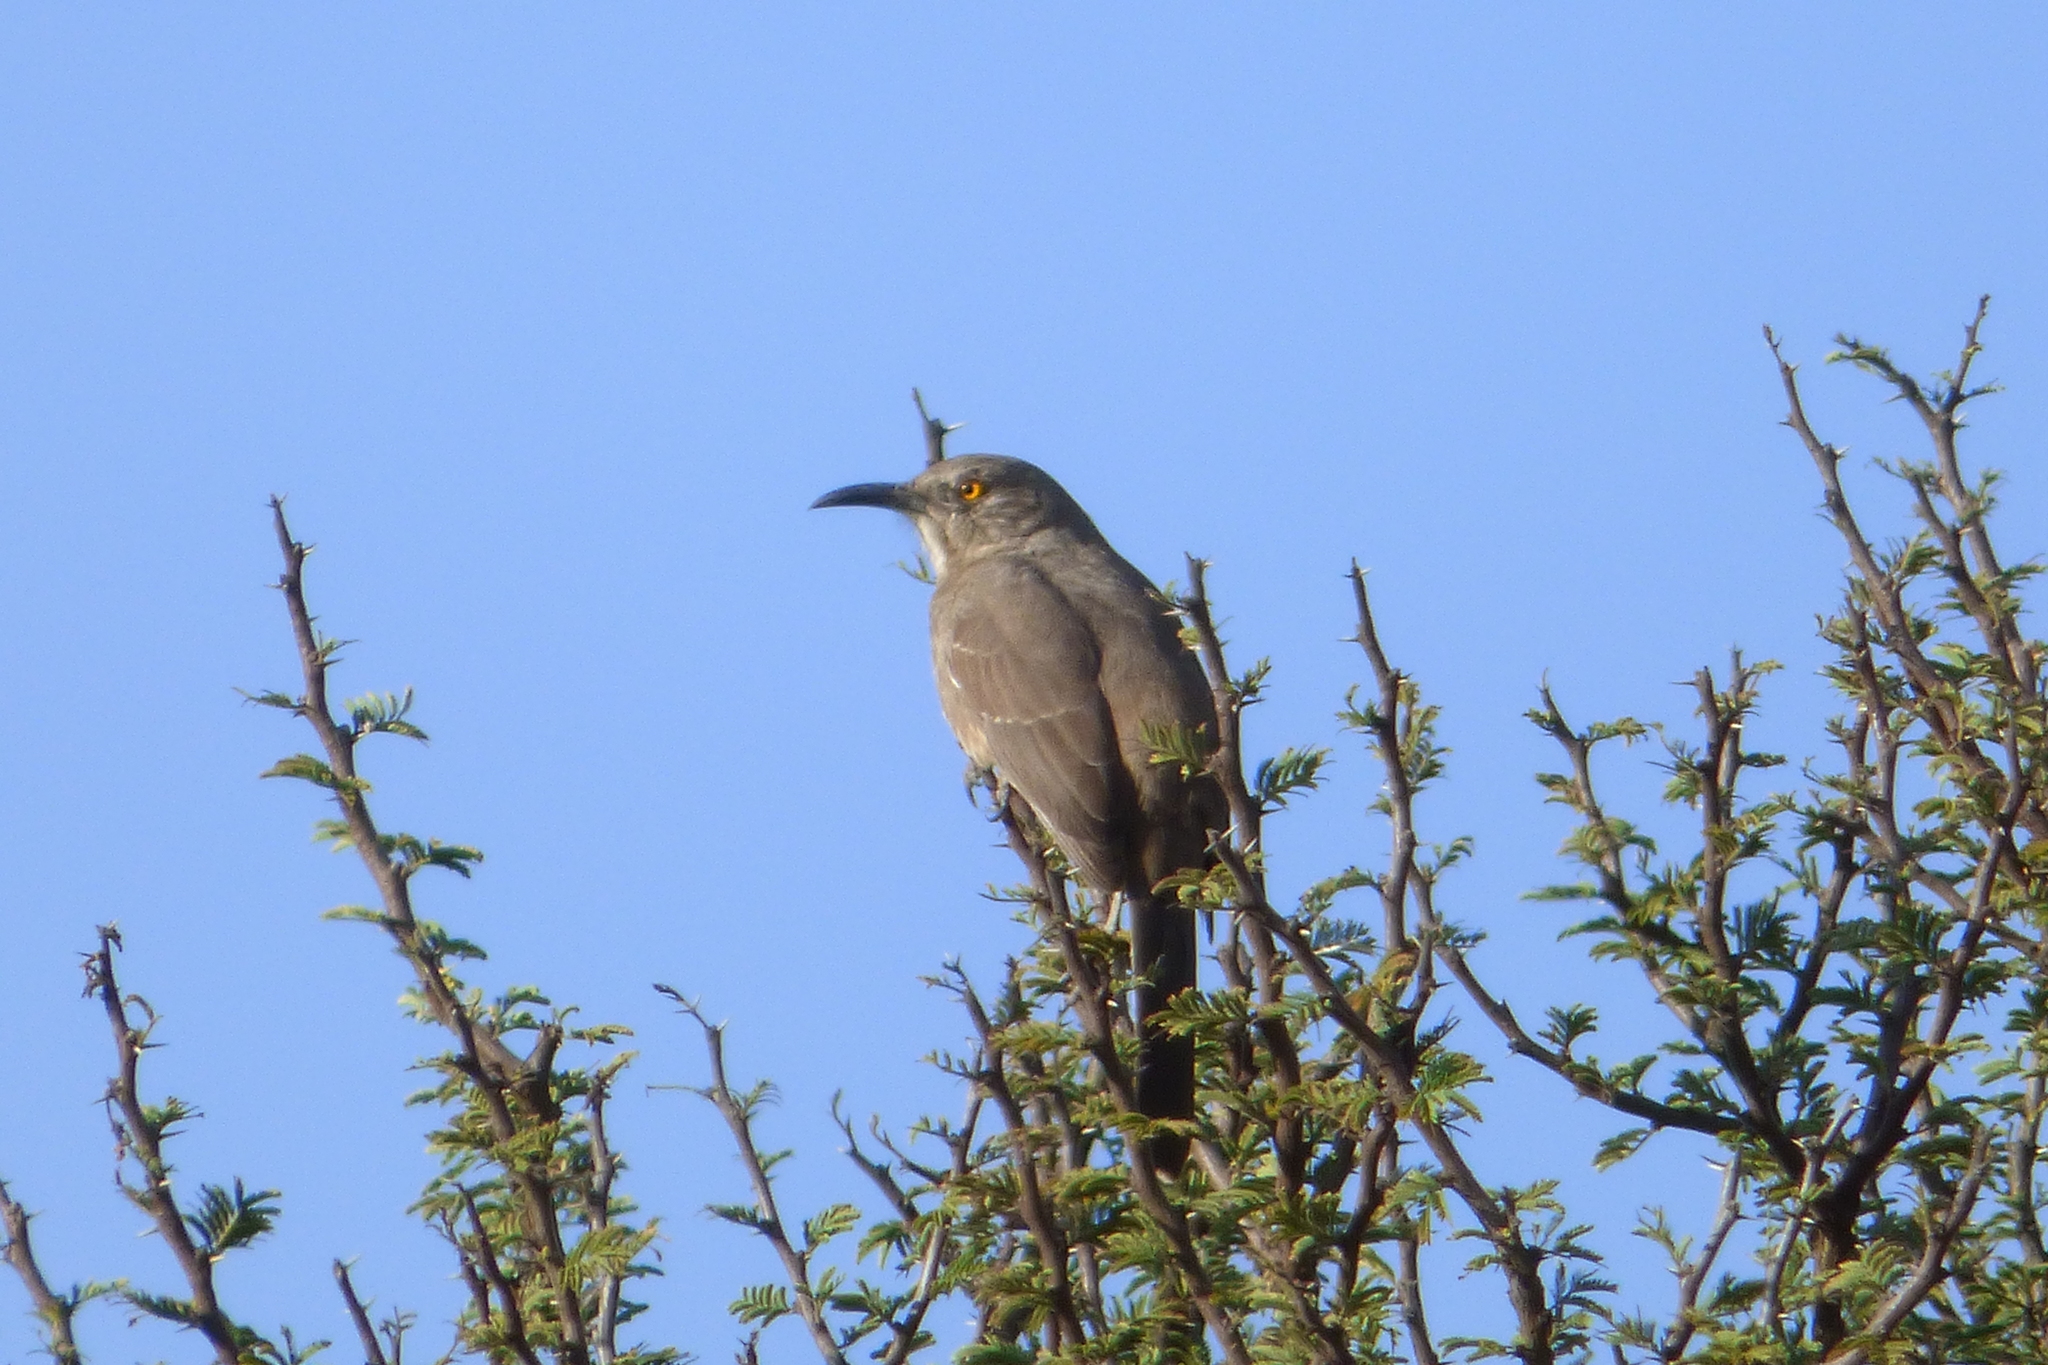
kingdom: Animalia
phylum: Chordata
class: Aves
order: Passeriformes
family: Mimidae
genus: Toxostoma
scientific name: Toxostoma curvirostre
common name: Curve-billed thrasher
